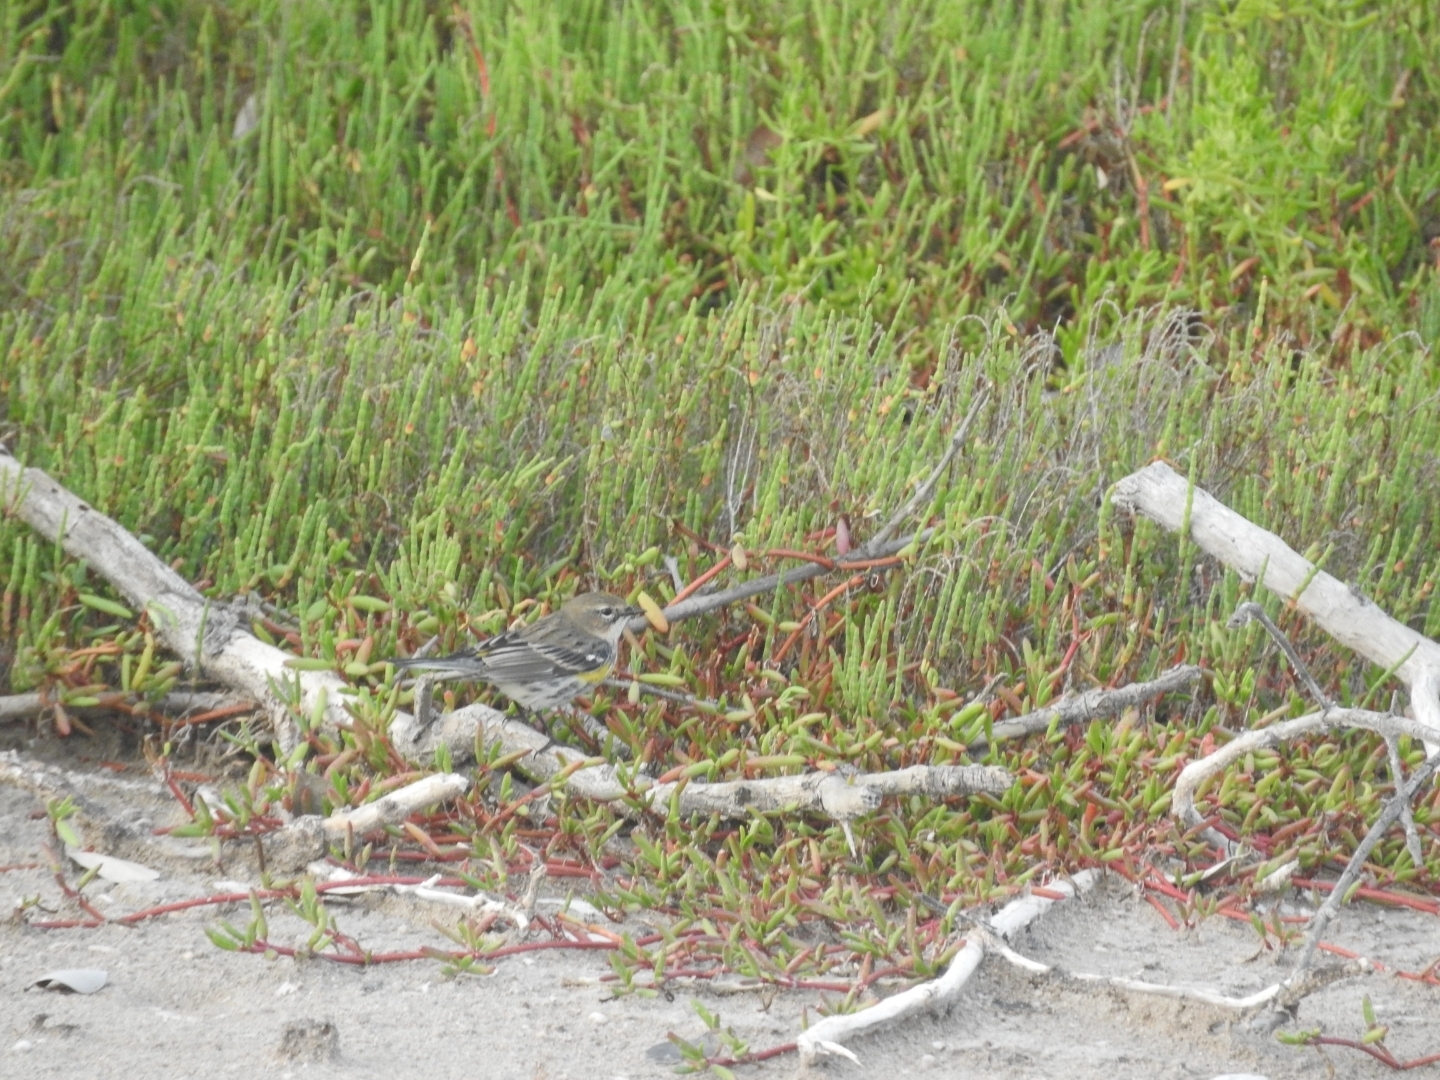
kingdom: Animalia
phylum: Chordata
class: Aves
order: Passeriformes
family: Parulidae
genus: Setophaga
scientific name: Setophaga coronata
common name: Myrtle warbler
